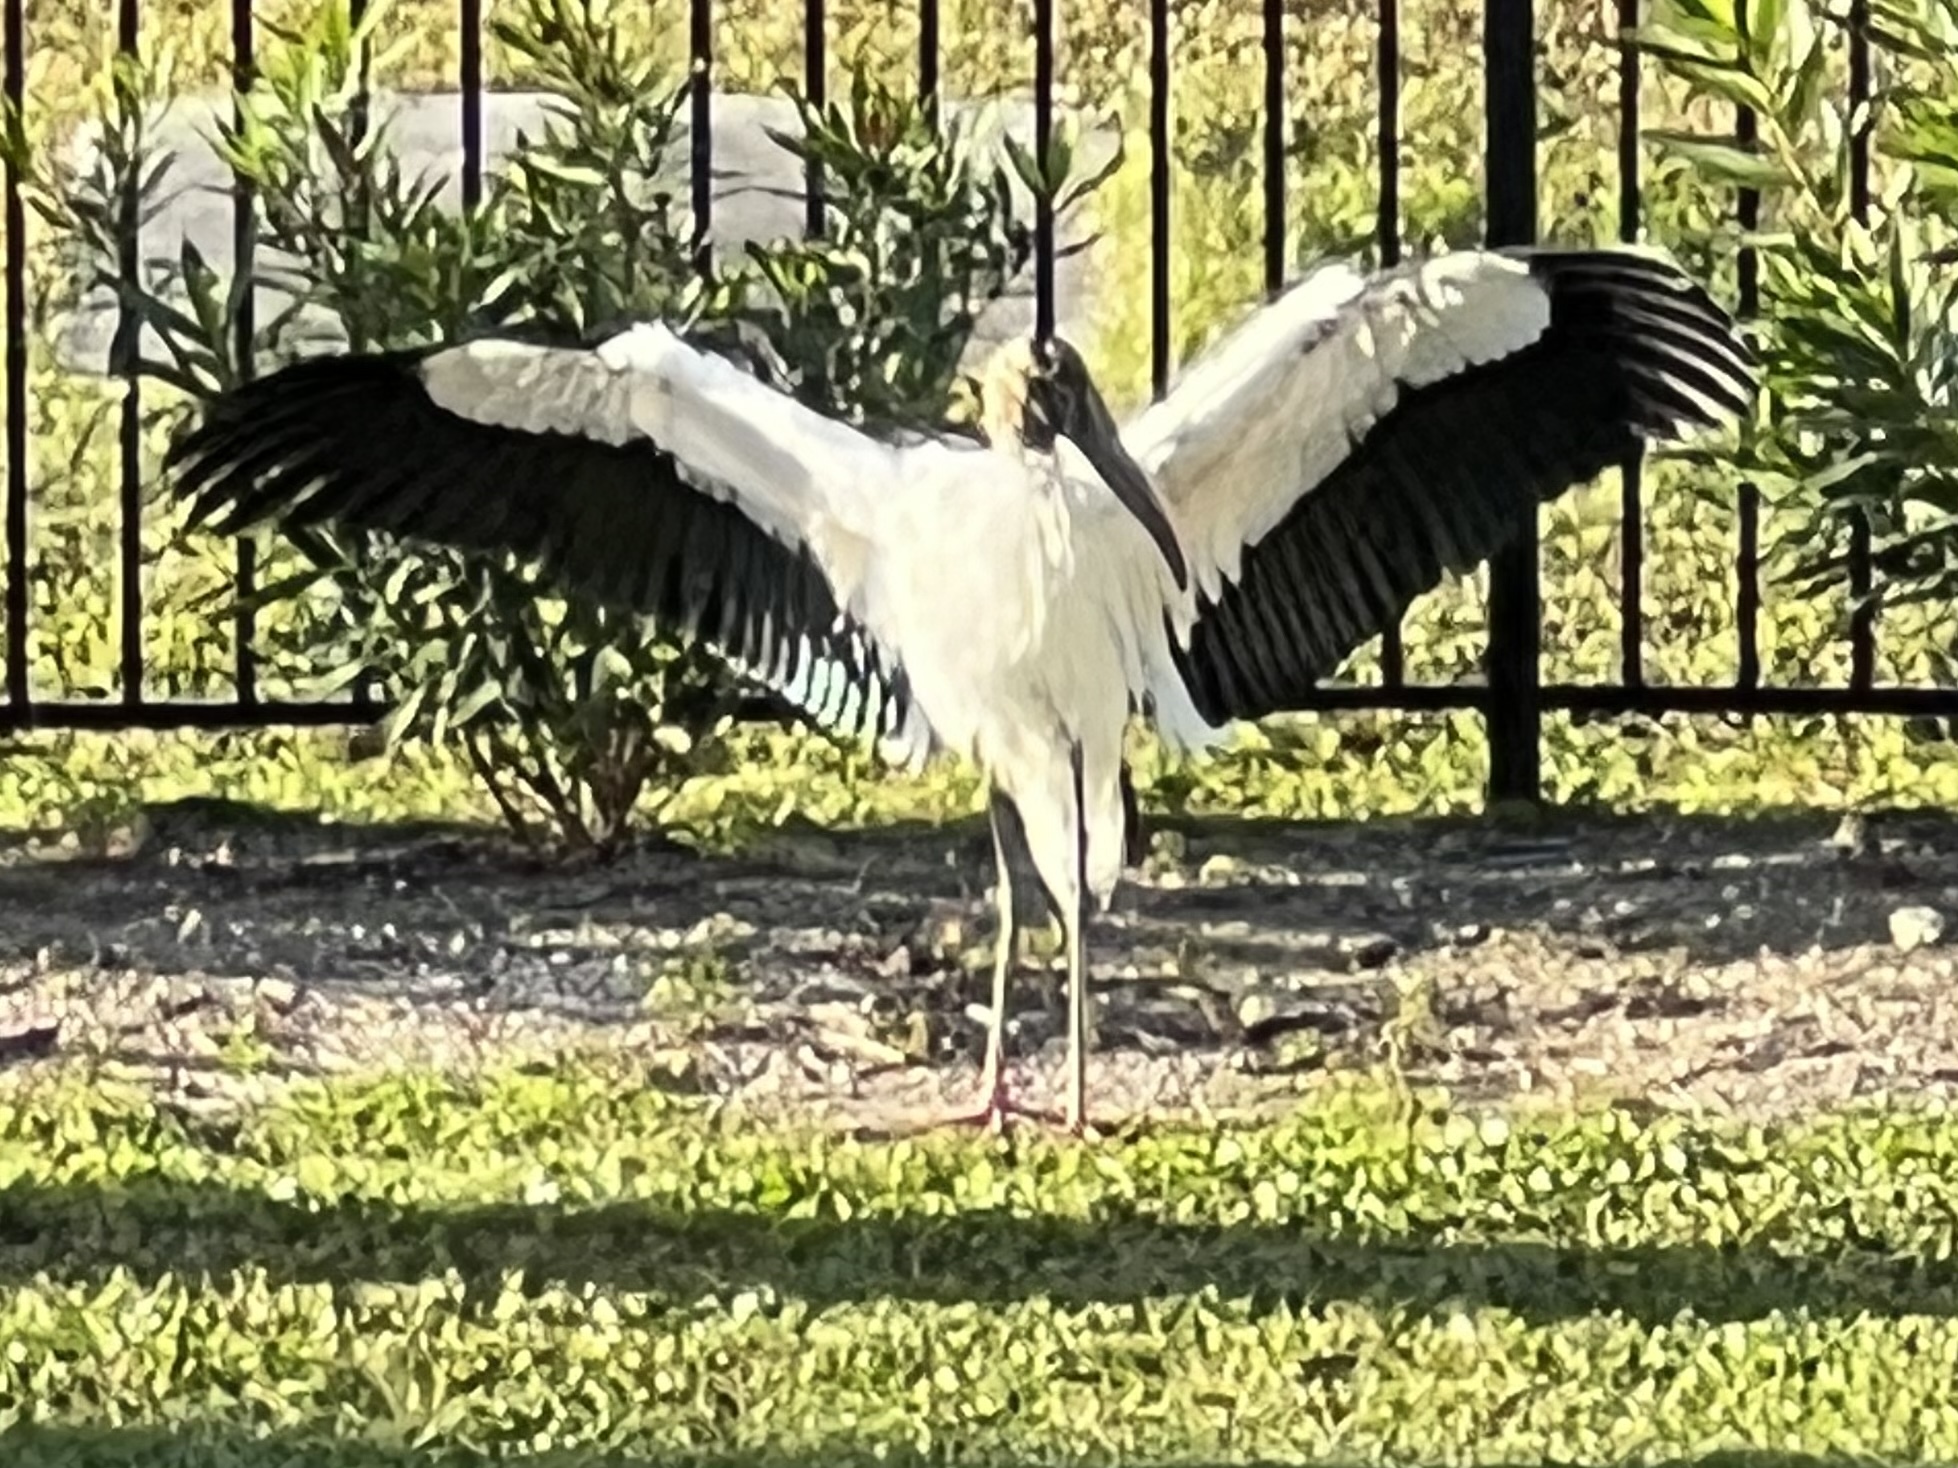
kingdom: Animalia
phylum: Chordata
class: Aves
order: Ciconiiformes
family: Ciconiidae
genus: Mycteria
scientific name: Mycteria americana
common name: Wood stork
